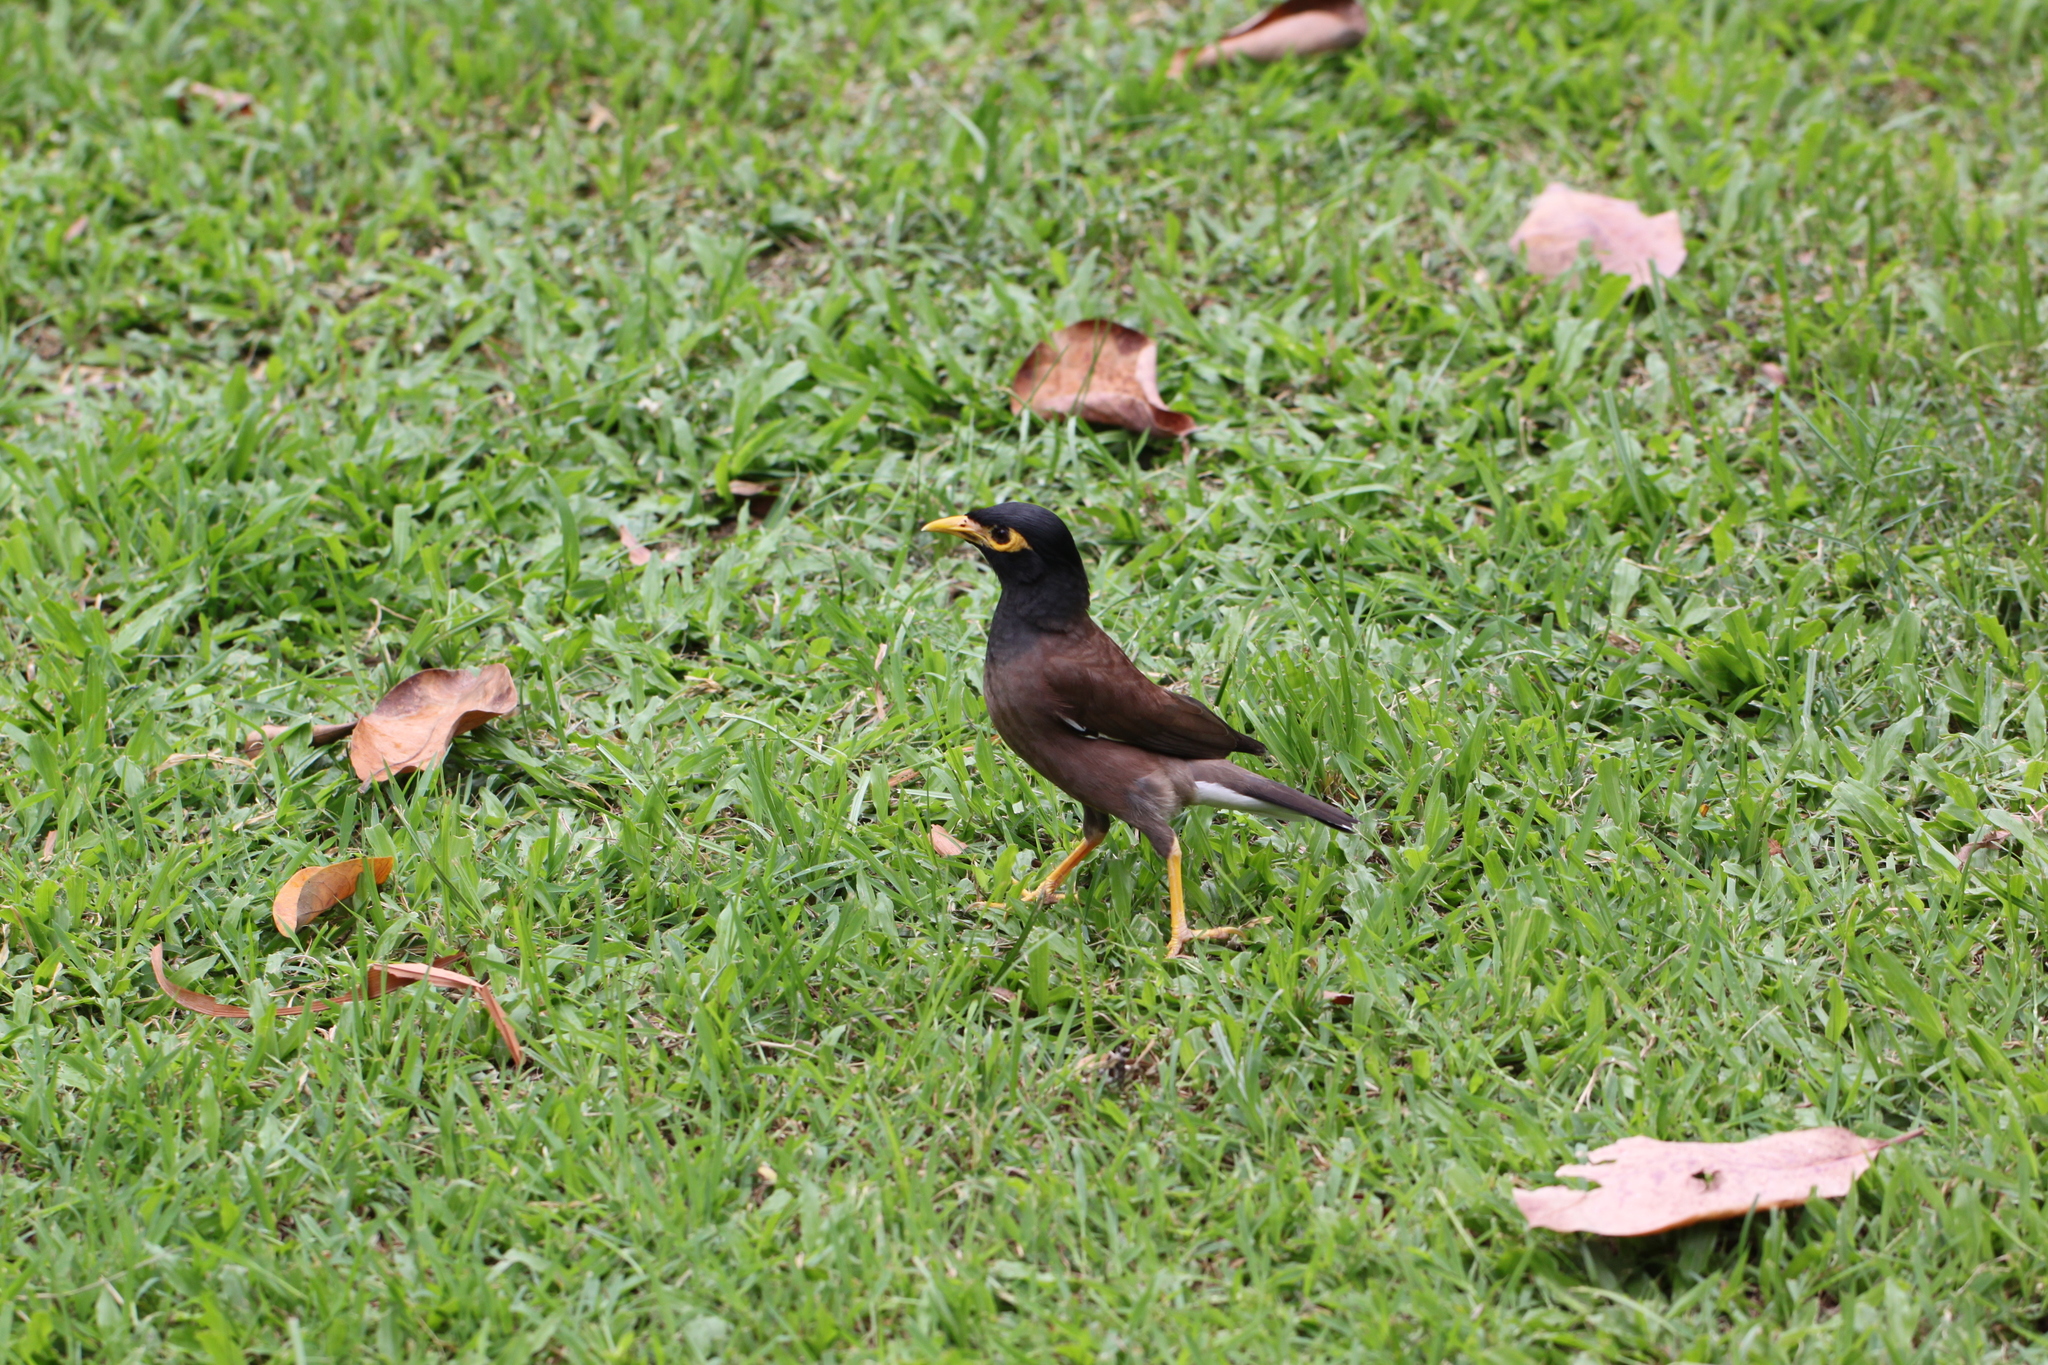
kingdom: Animalia
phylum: Chordata
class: Aves
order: Passeriformes
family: Sturnidae
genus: Acridotheres
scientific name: Acridotheres tristis
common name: Common myna
